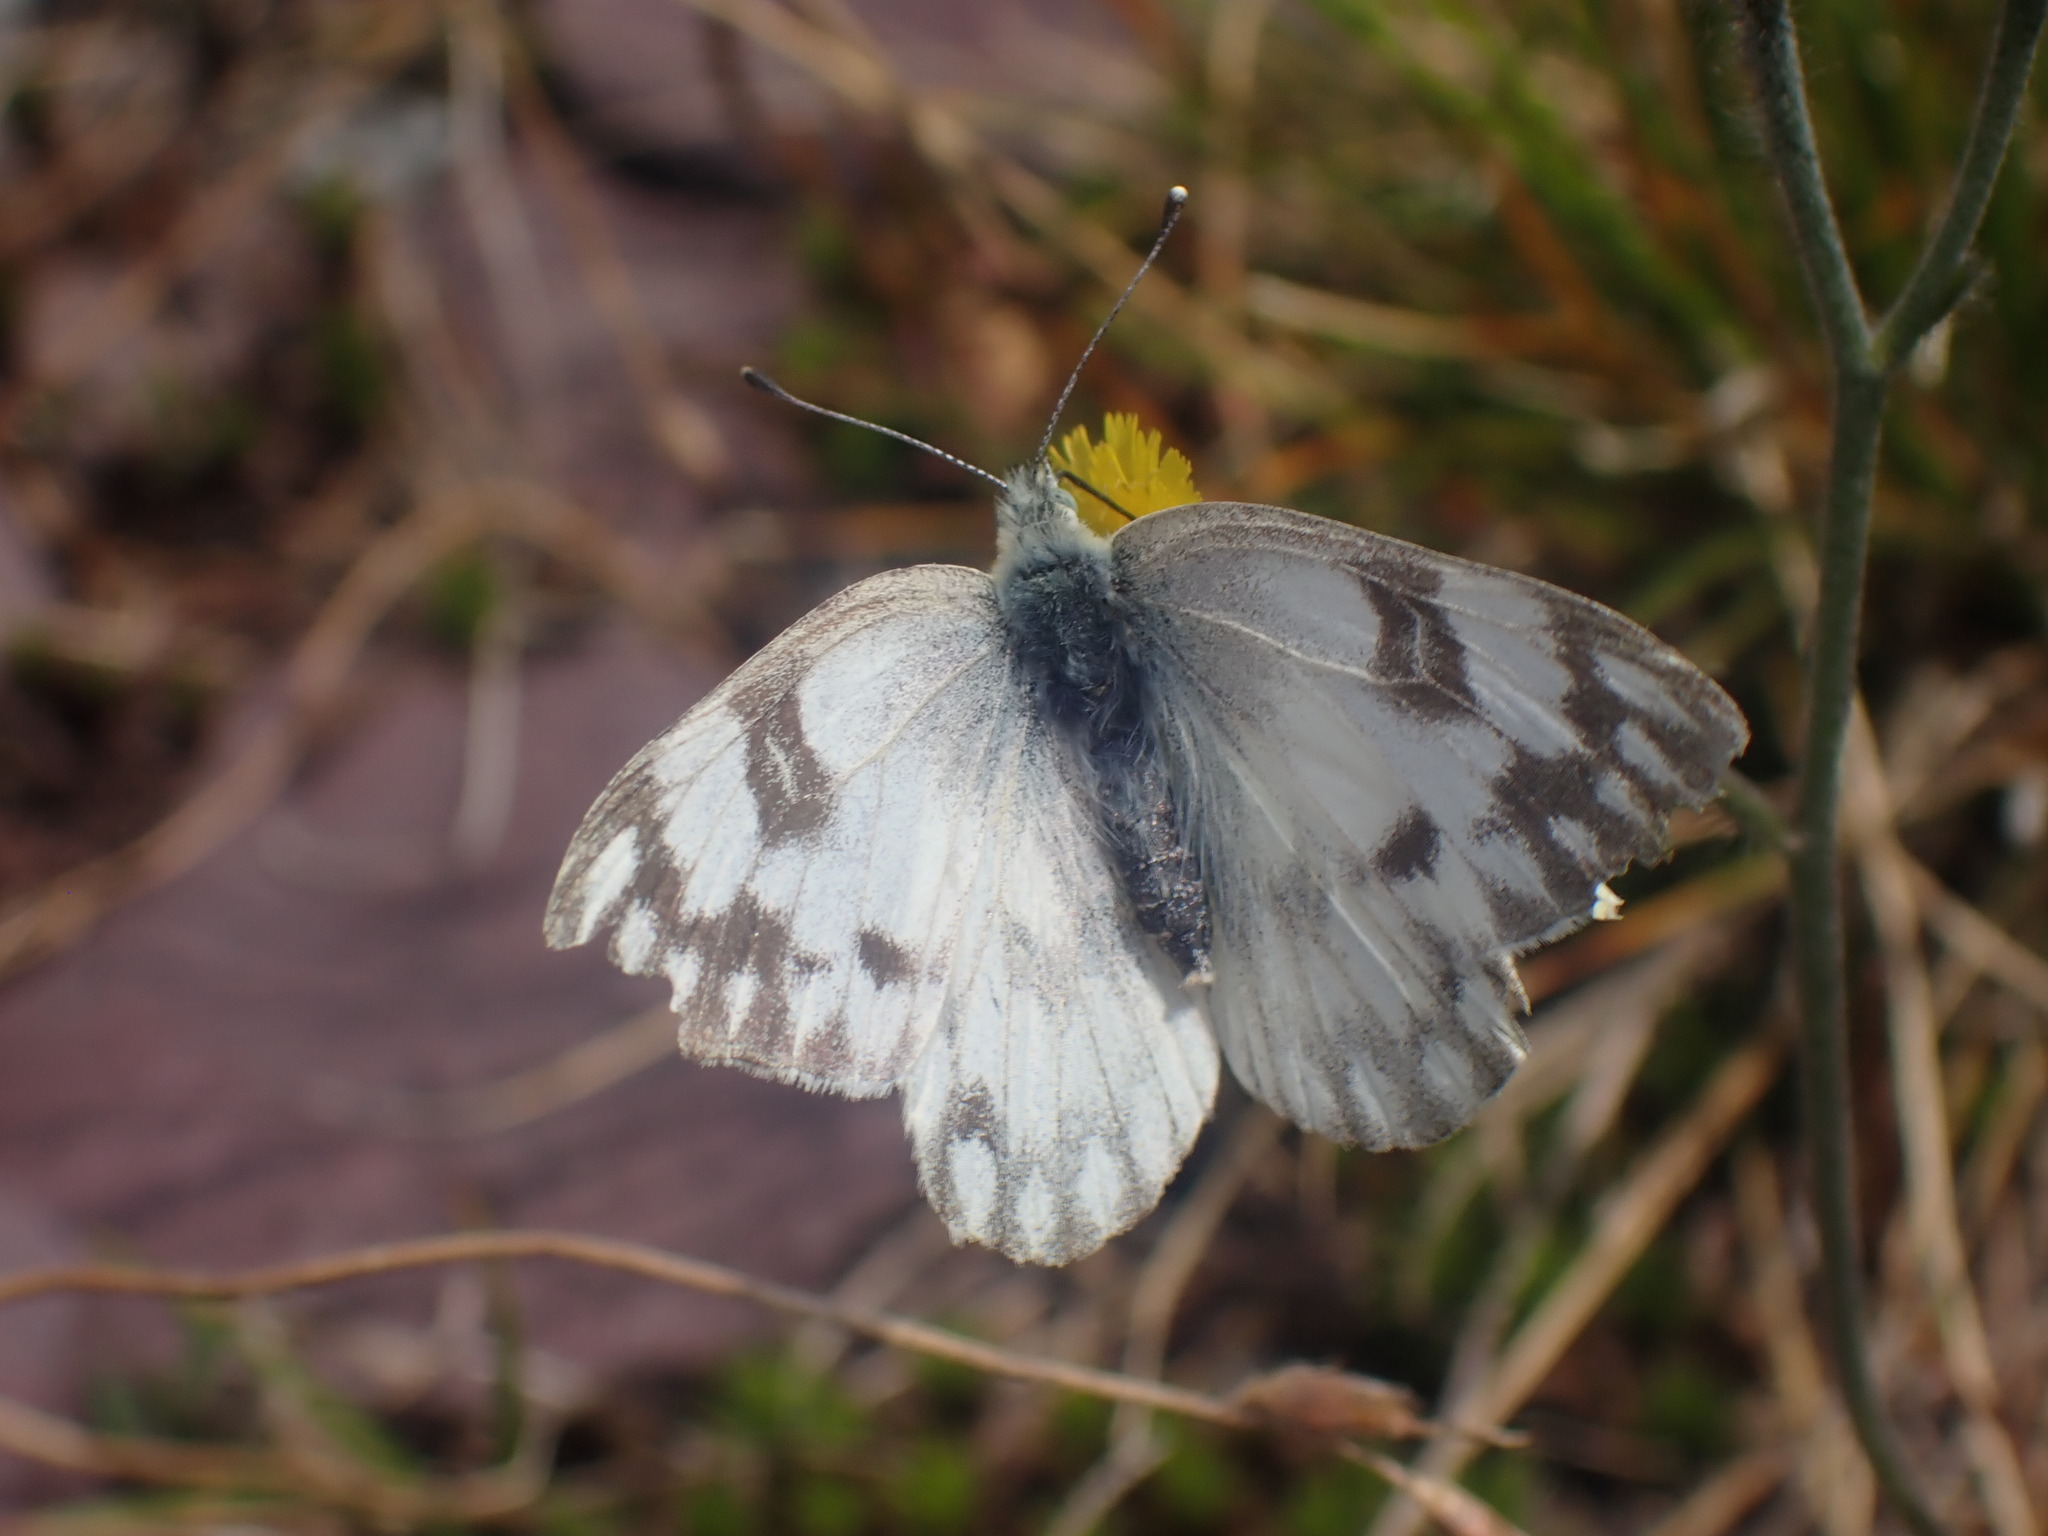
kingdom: Animalia
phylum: Arthropoda
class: Insecta
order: Lepidoptera
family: Pieridae
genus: Pontia
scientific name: Pontia occidentalis
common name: Western white
